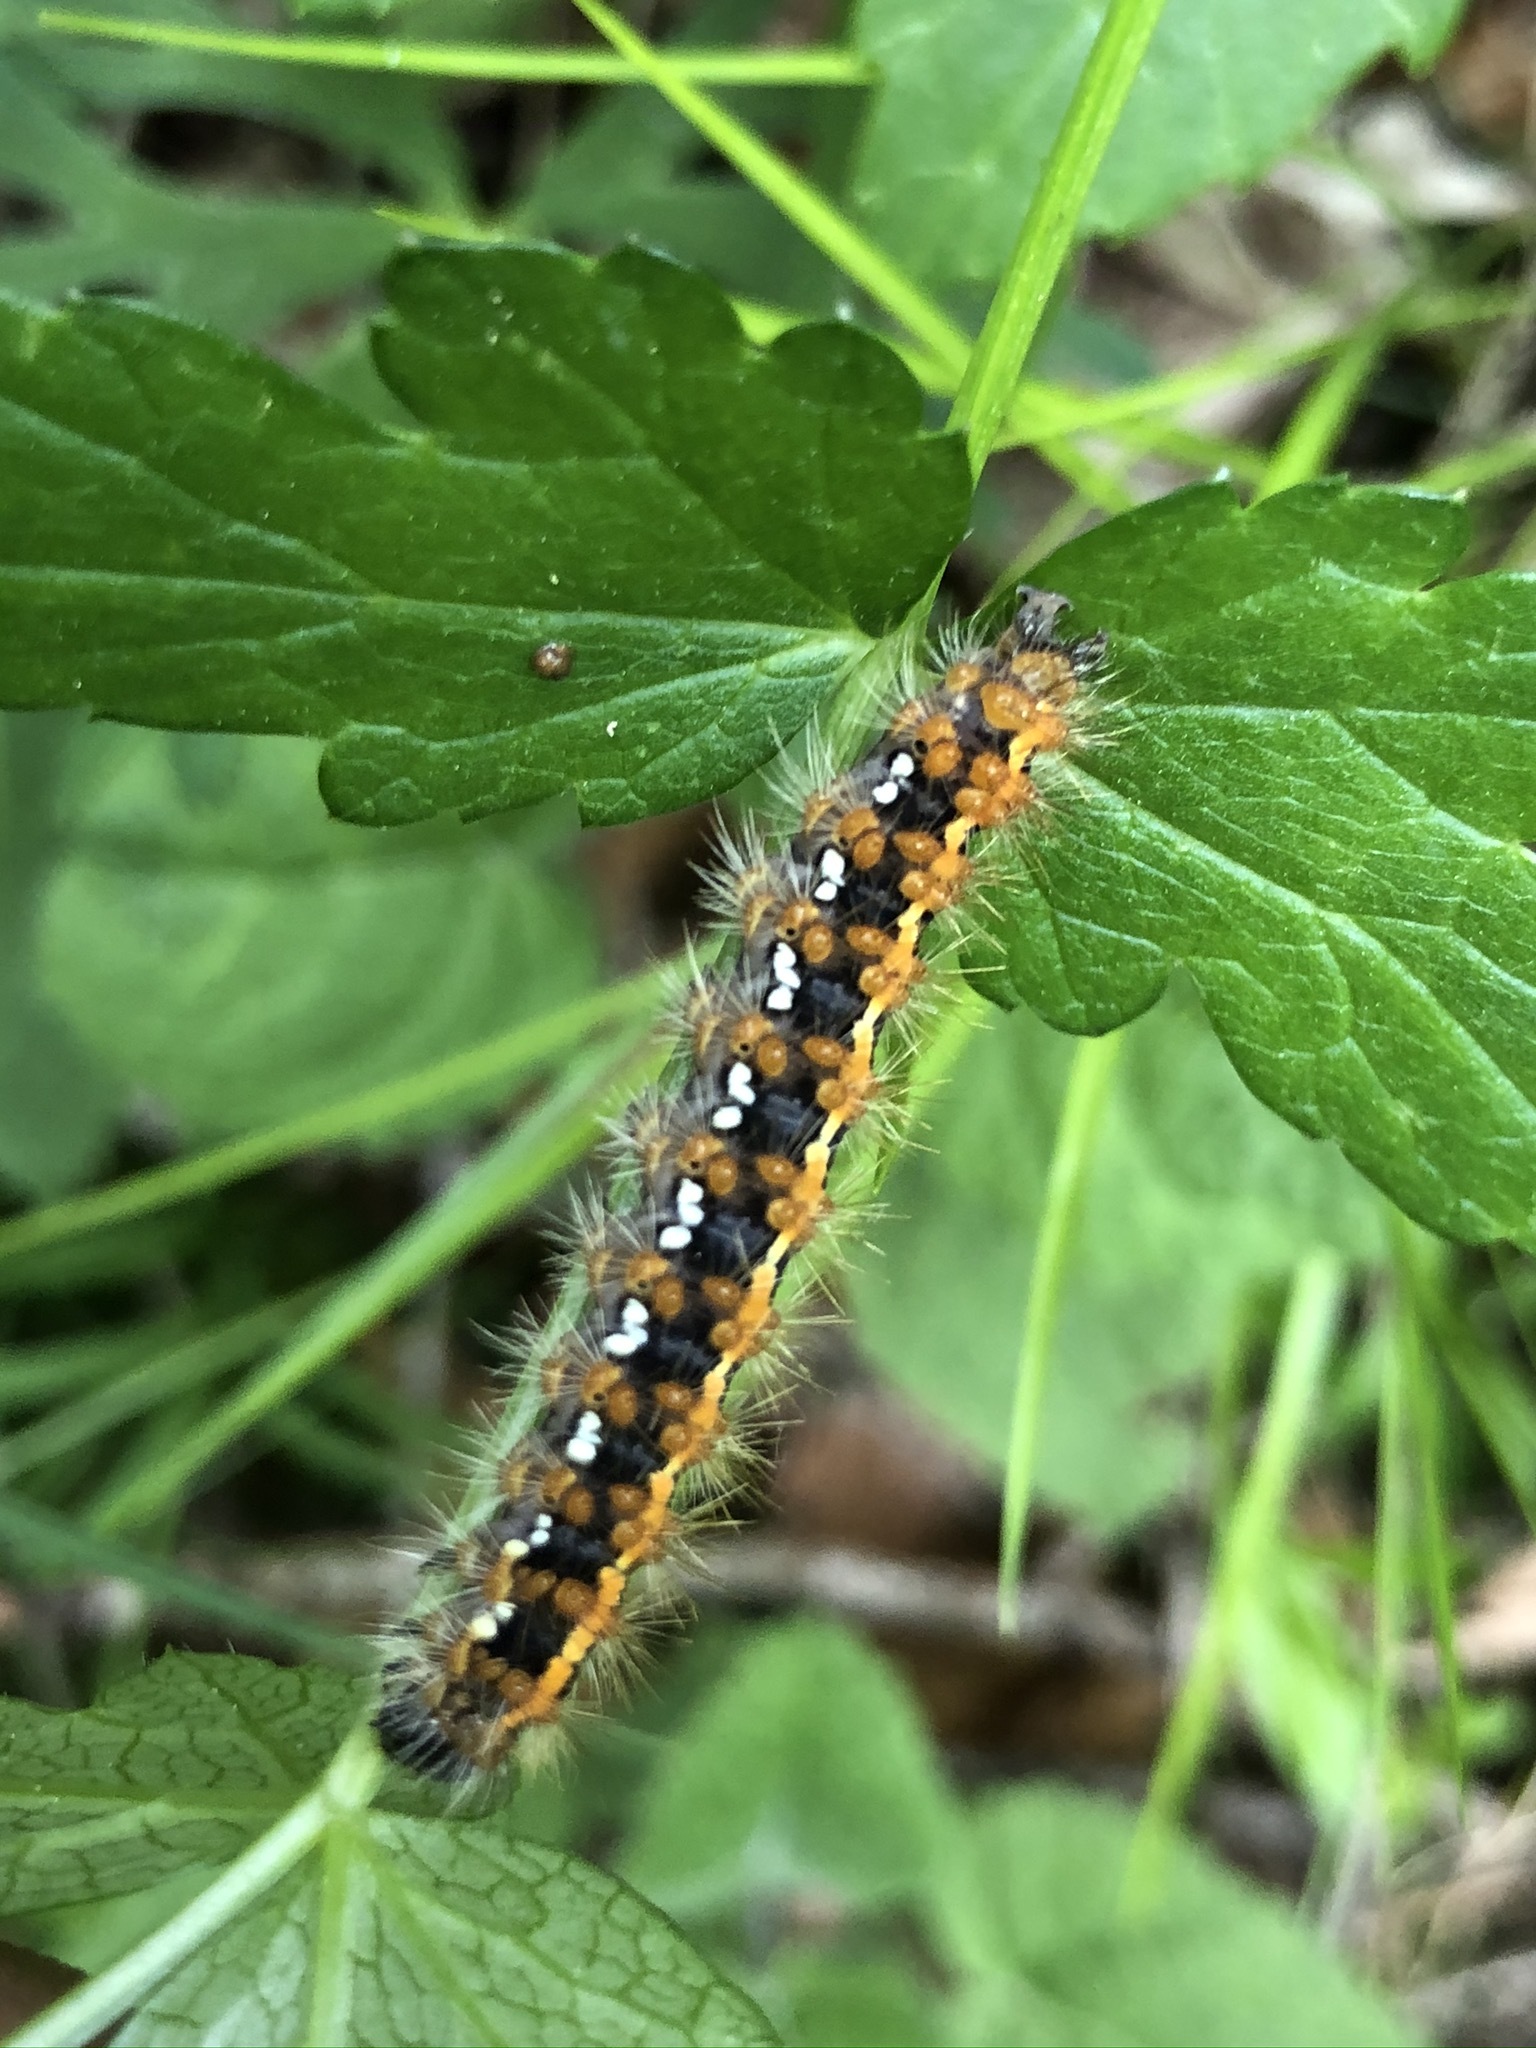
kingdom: Animalia
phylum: Arthropoda
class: Insecta
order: Lepidoptera
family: Erebidae
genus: Euplagia
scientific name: Euplagia quadripunctaria
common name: Jersey tiger
